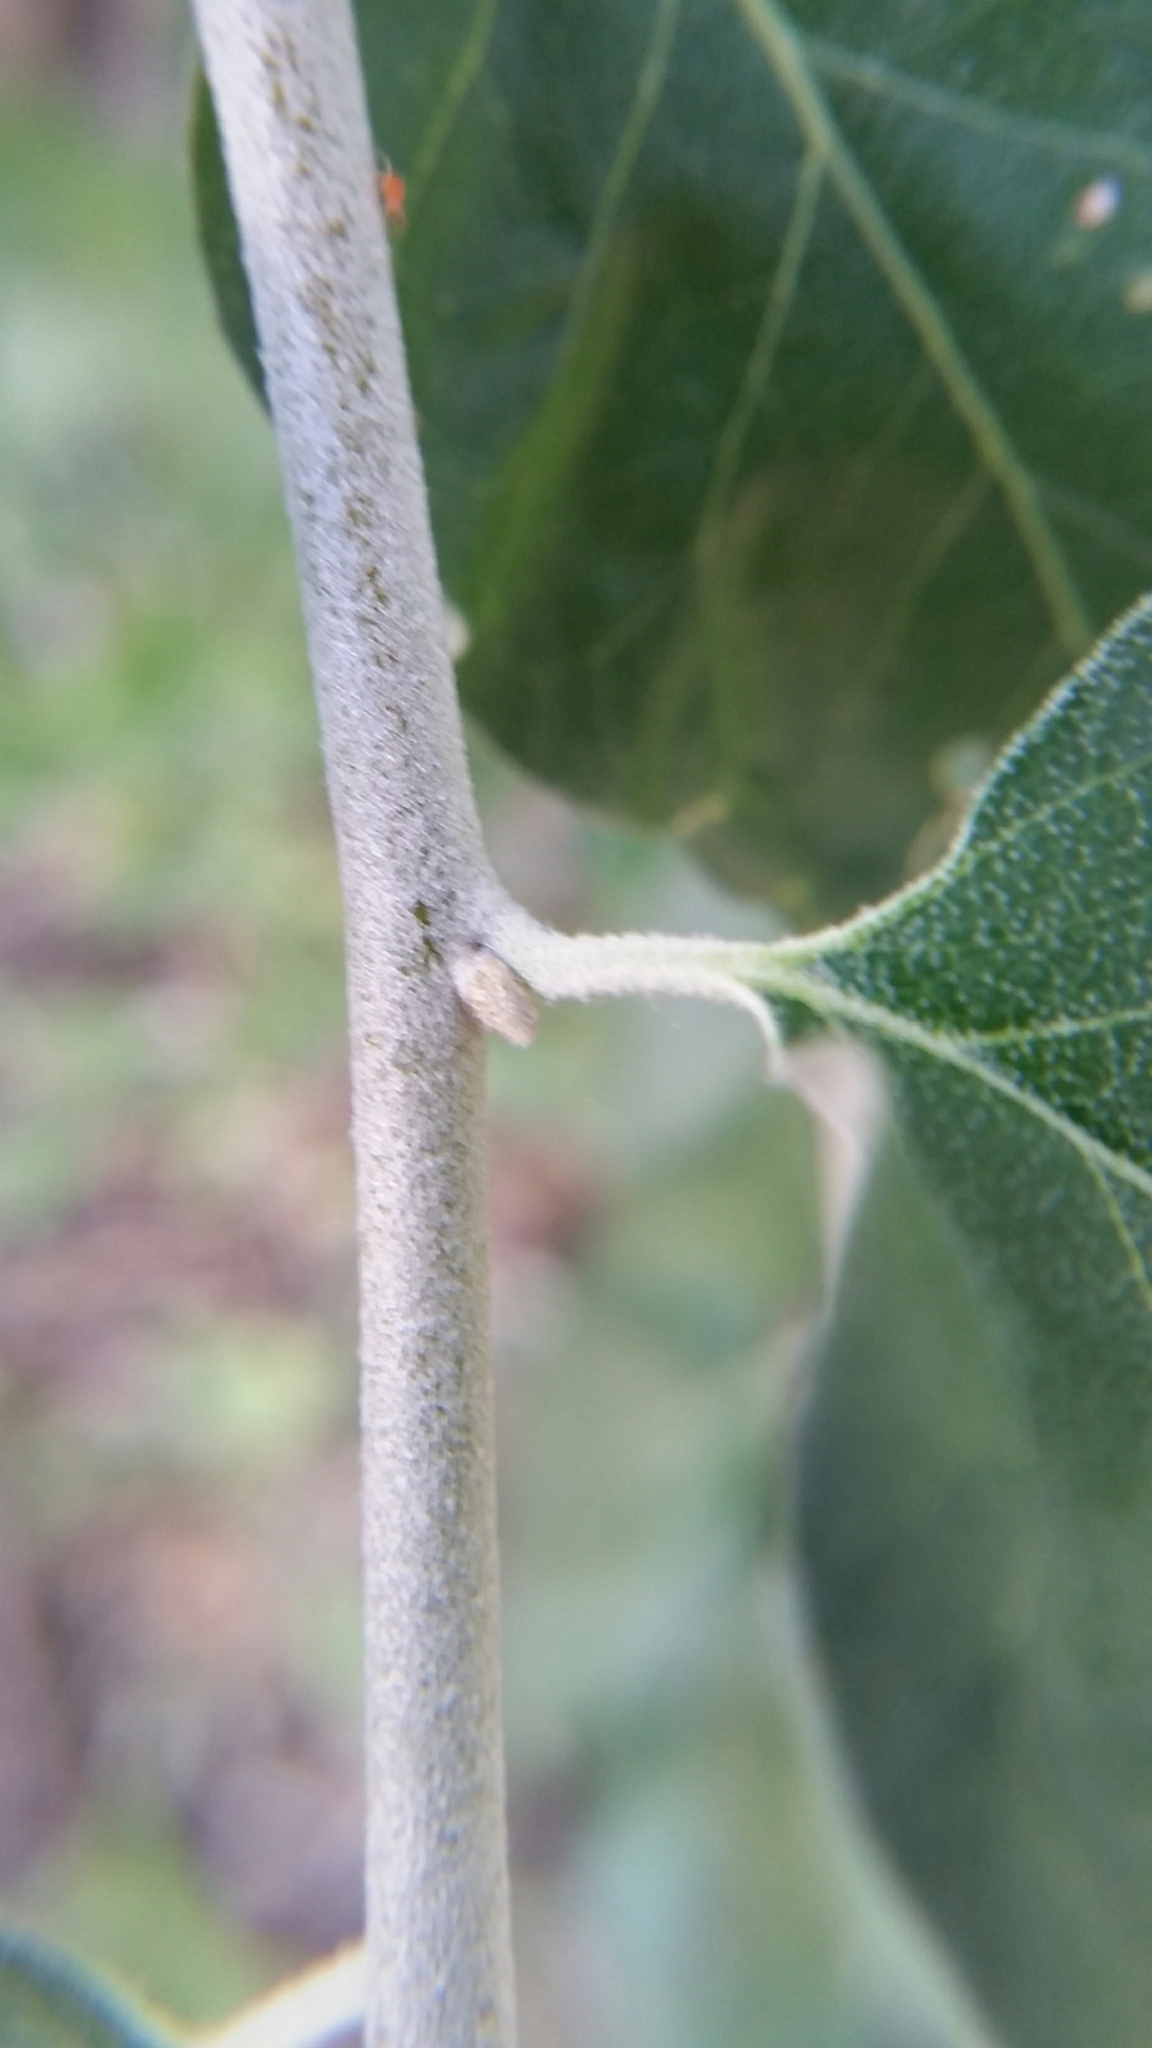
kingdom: Plantae
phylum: Tracheophyta
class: Magnoliopsida
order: Rosales
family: Elaeagnaceae
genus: Elaeagnus
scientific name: Elaeagnus angustifolia
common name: Russian olive
